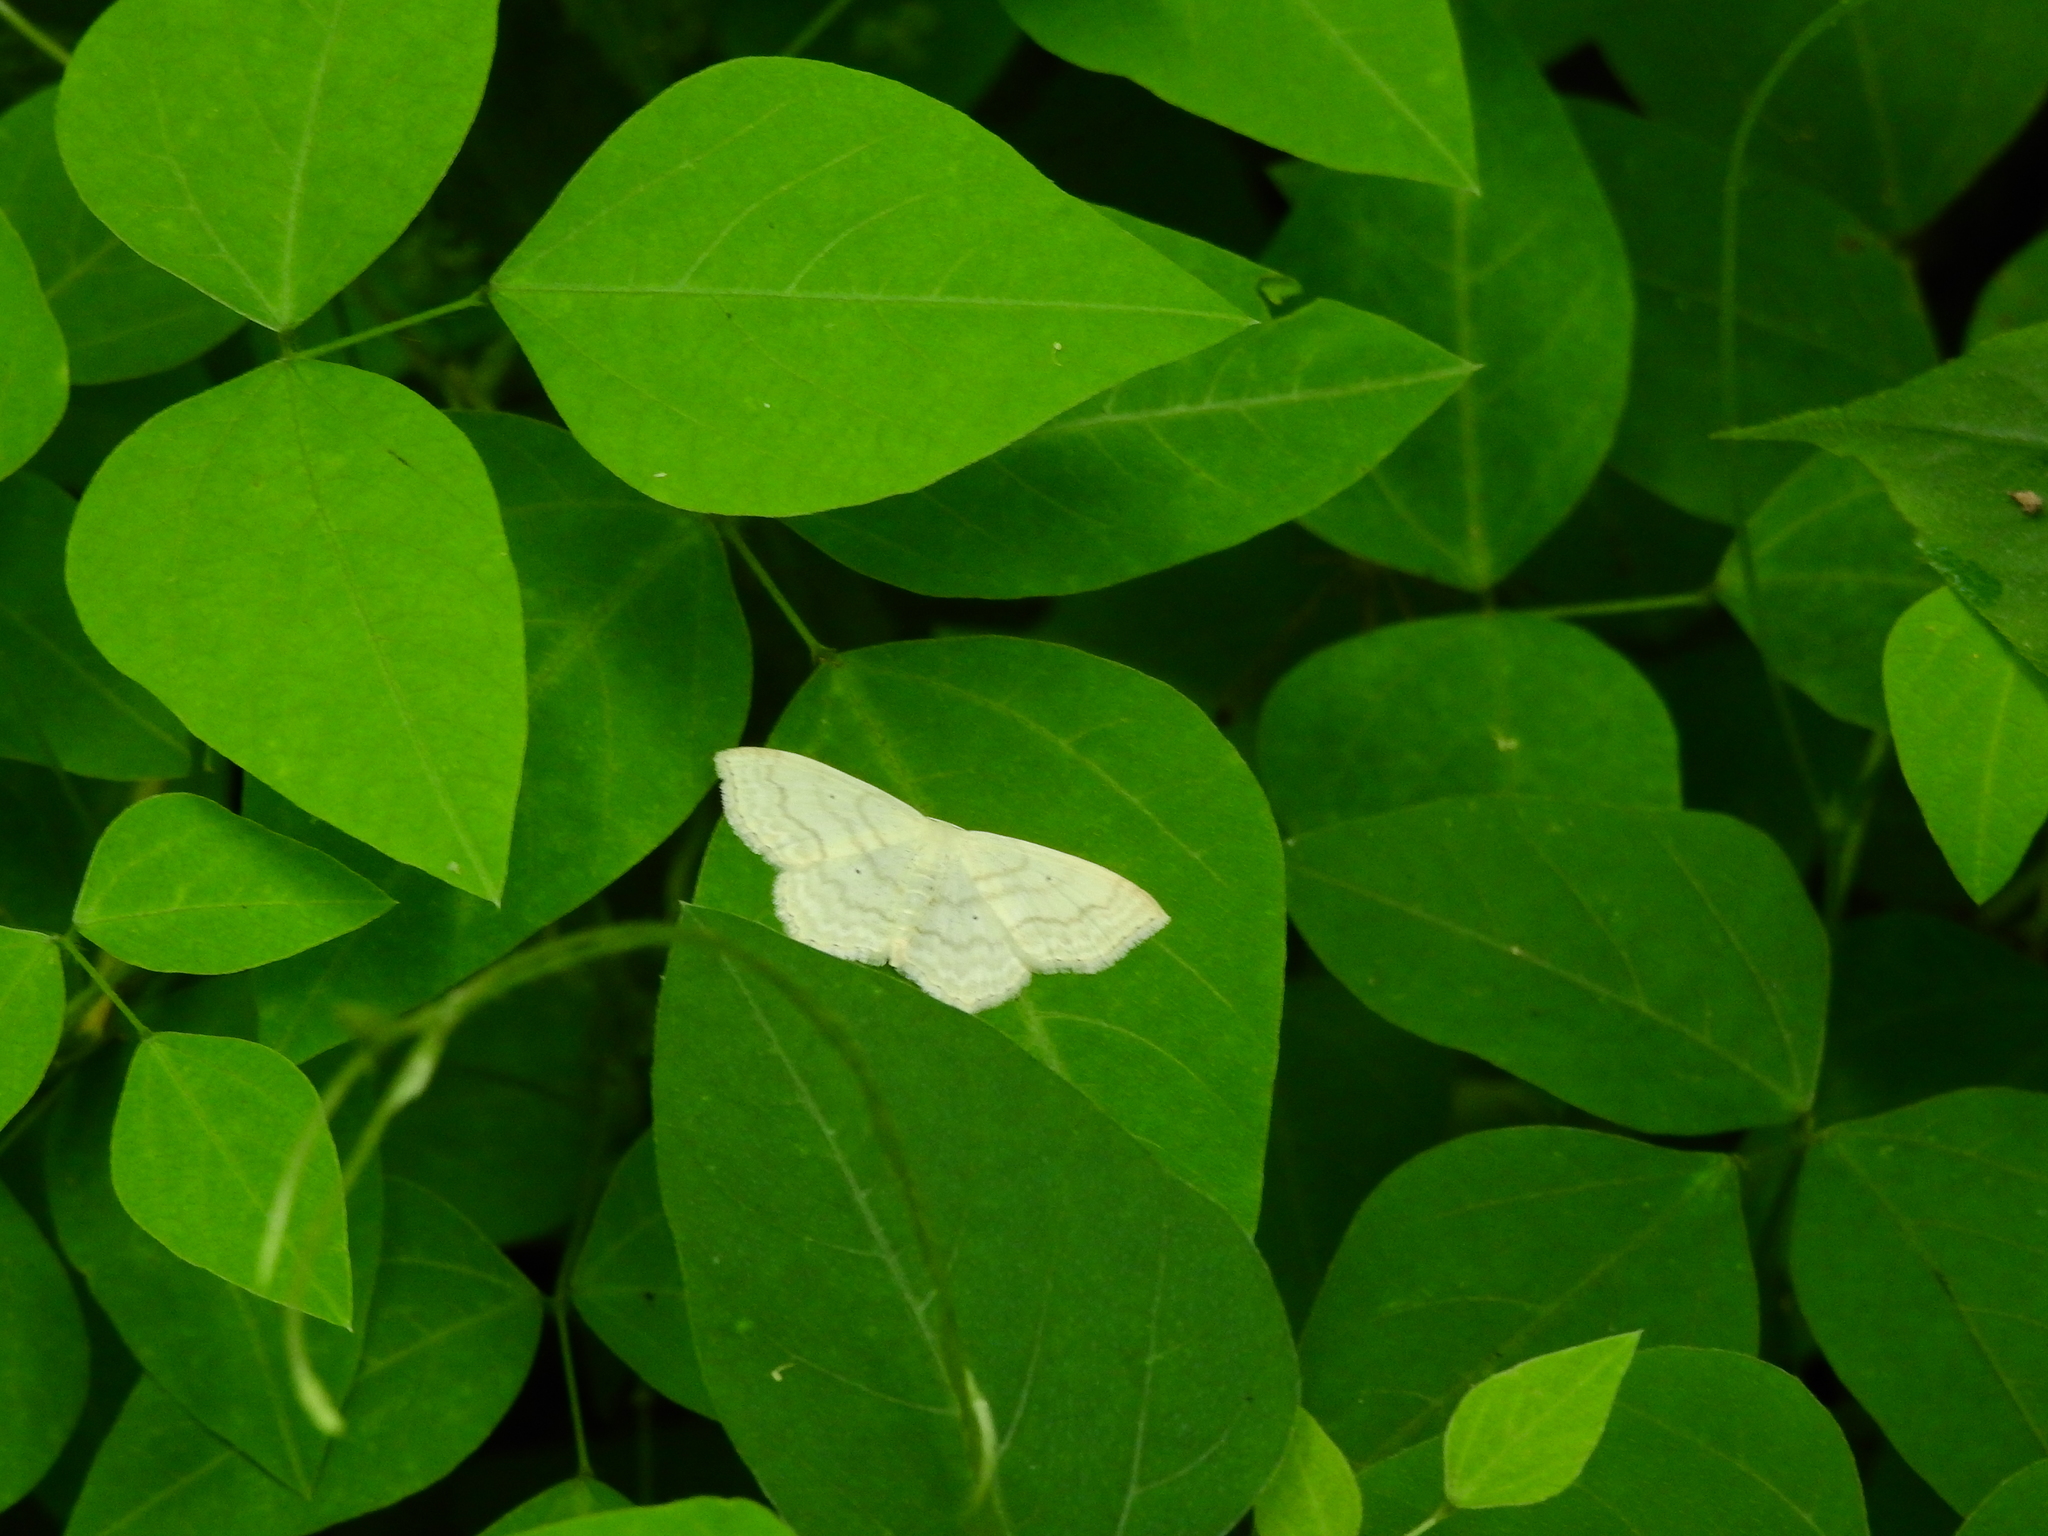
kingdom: Animalia
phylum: Arthropoda
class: Insecta
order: Lepidoptera
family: Geometridae
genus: Scopula
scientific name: Scopula limboundata
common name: Large lace border
